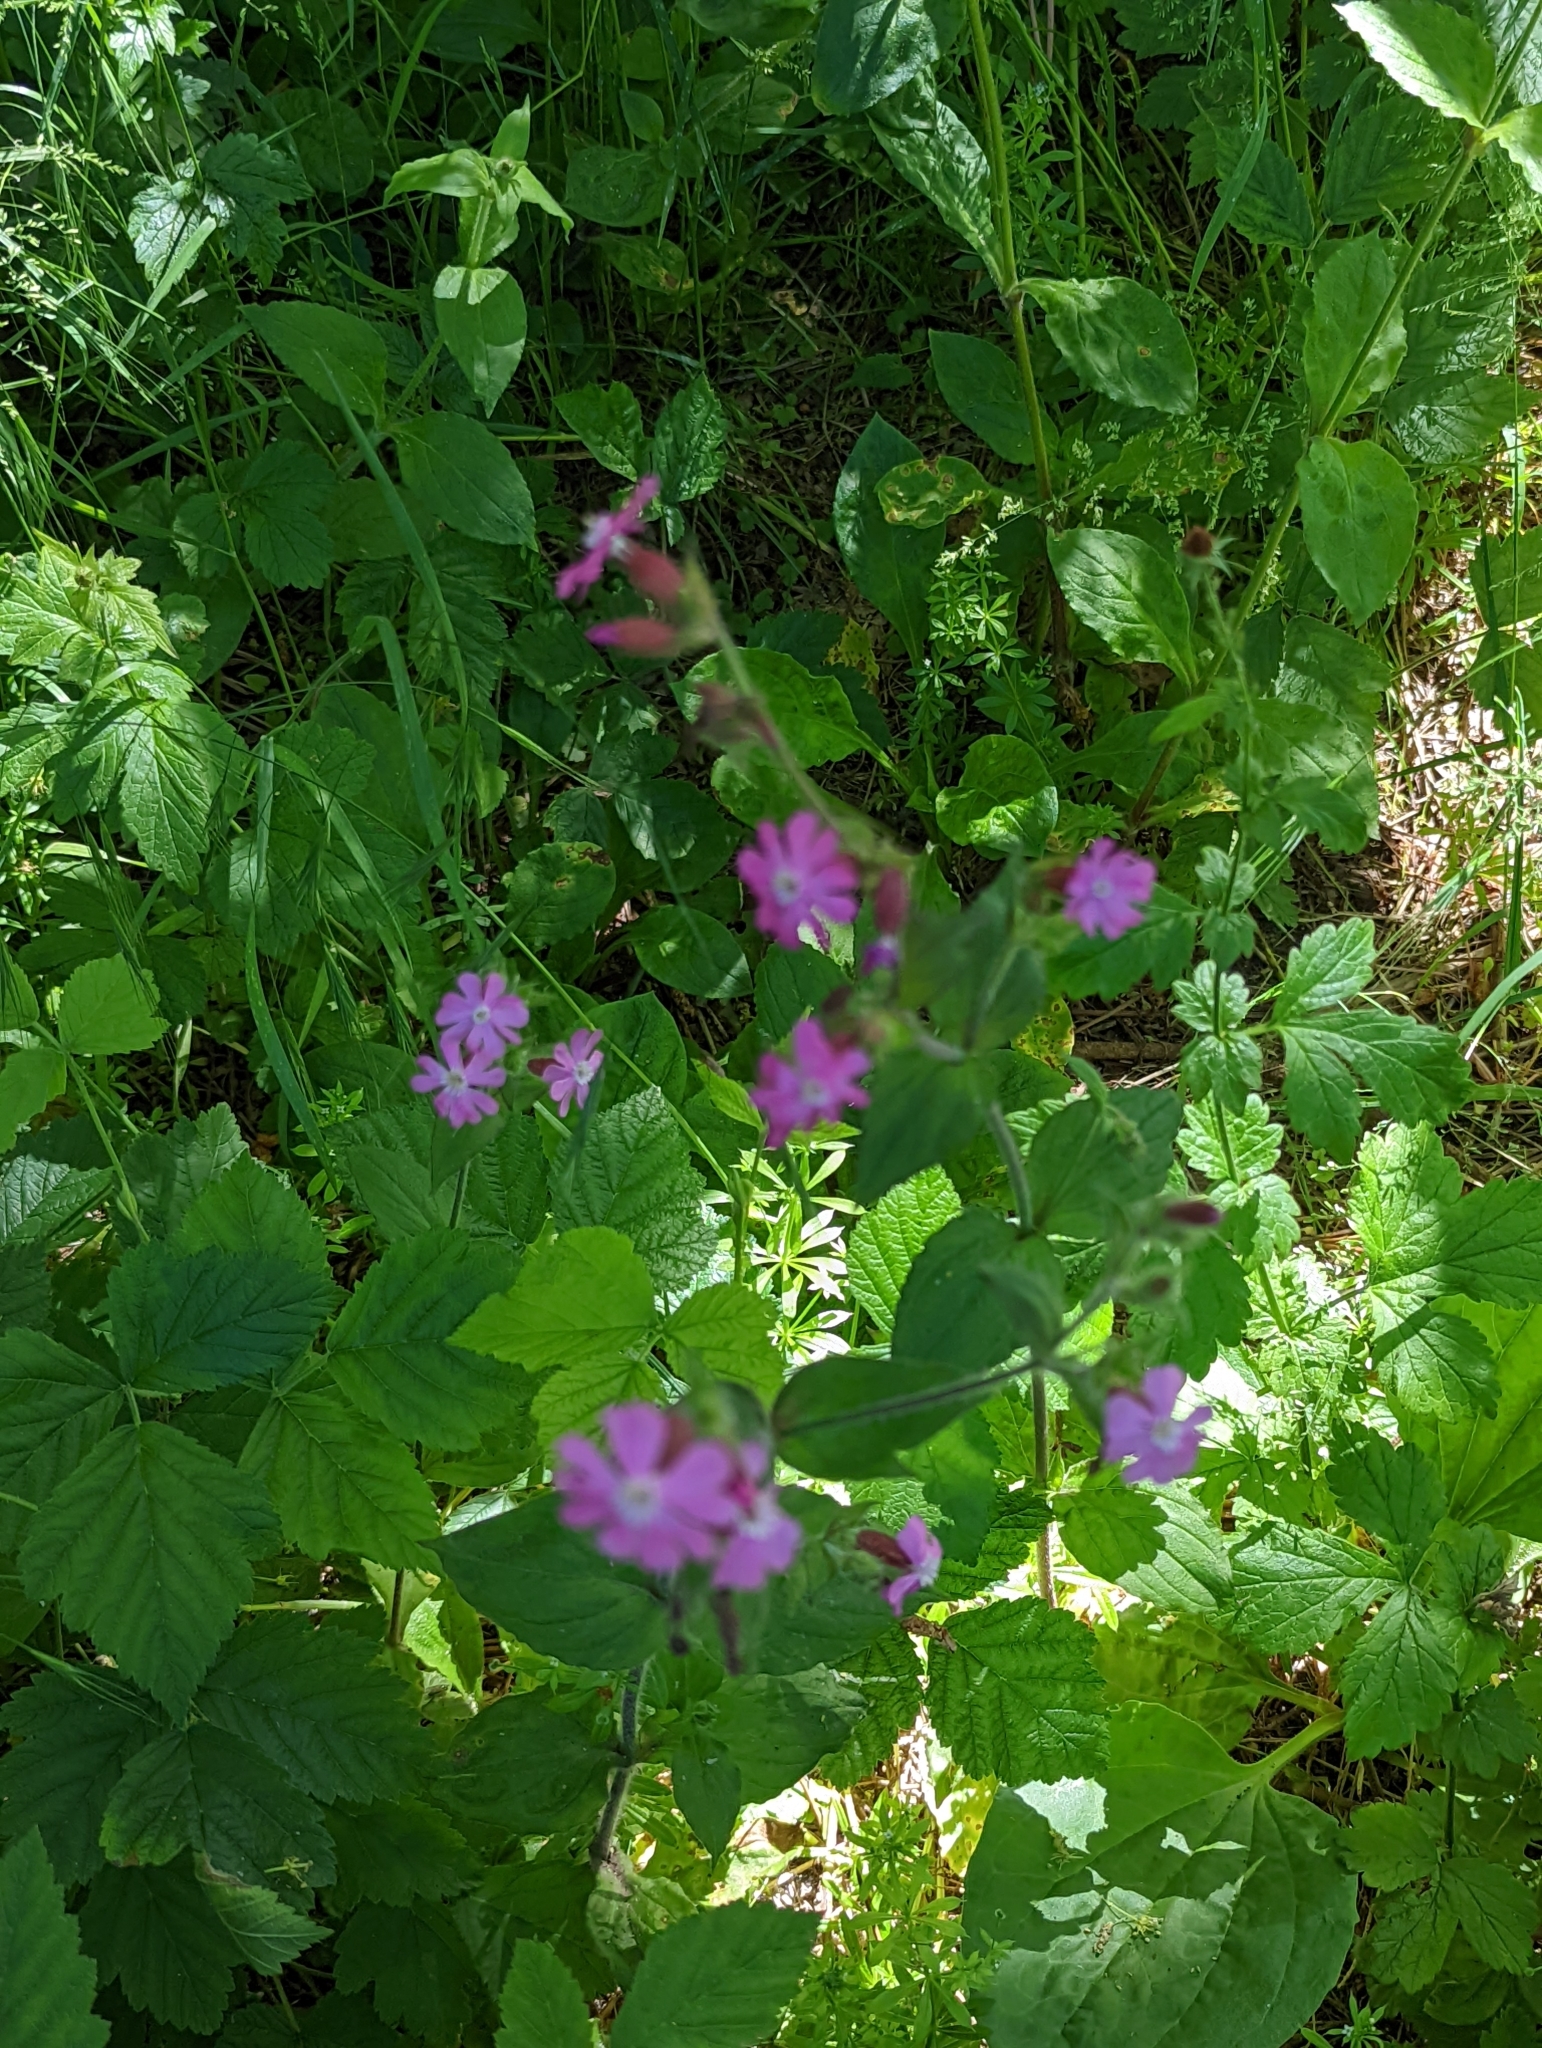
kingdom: Plantae
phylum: Tracheophyta
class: Magnoliopsida
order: Caryophyllales
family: Caryophyllaceae
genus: Silene
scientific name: Silene dioica
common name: Red campion
